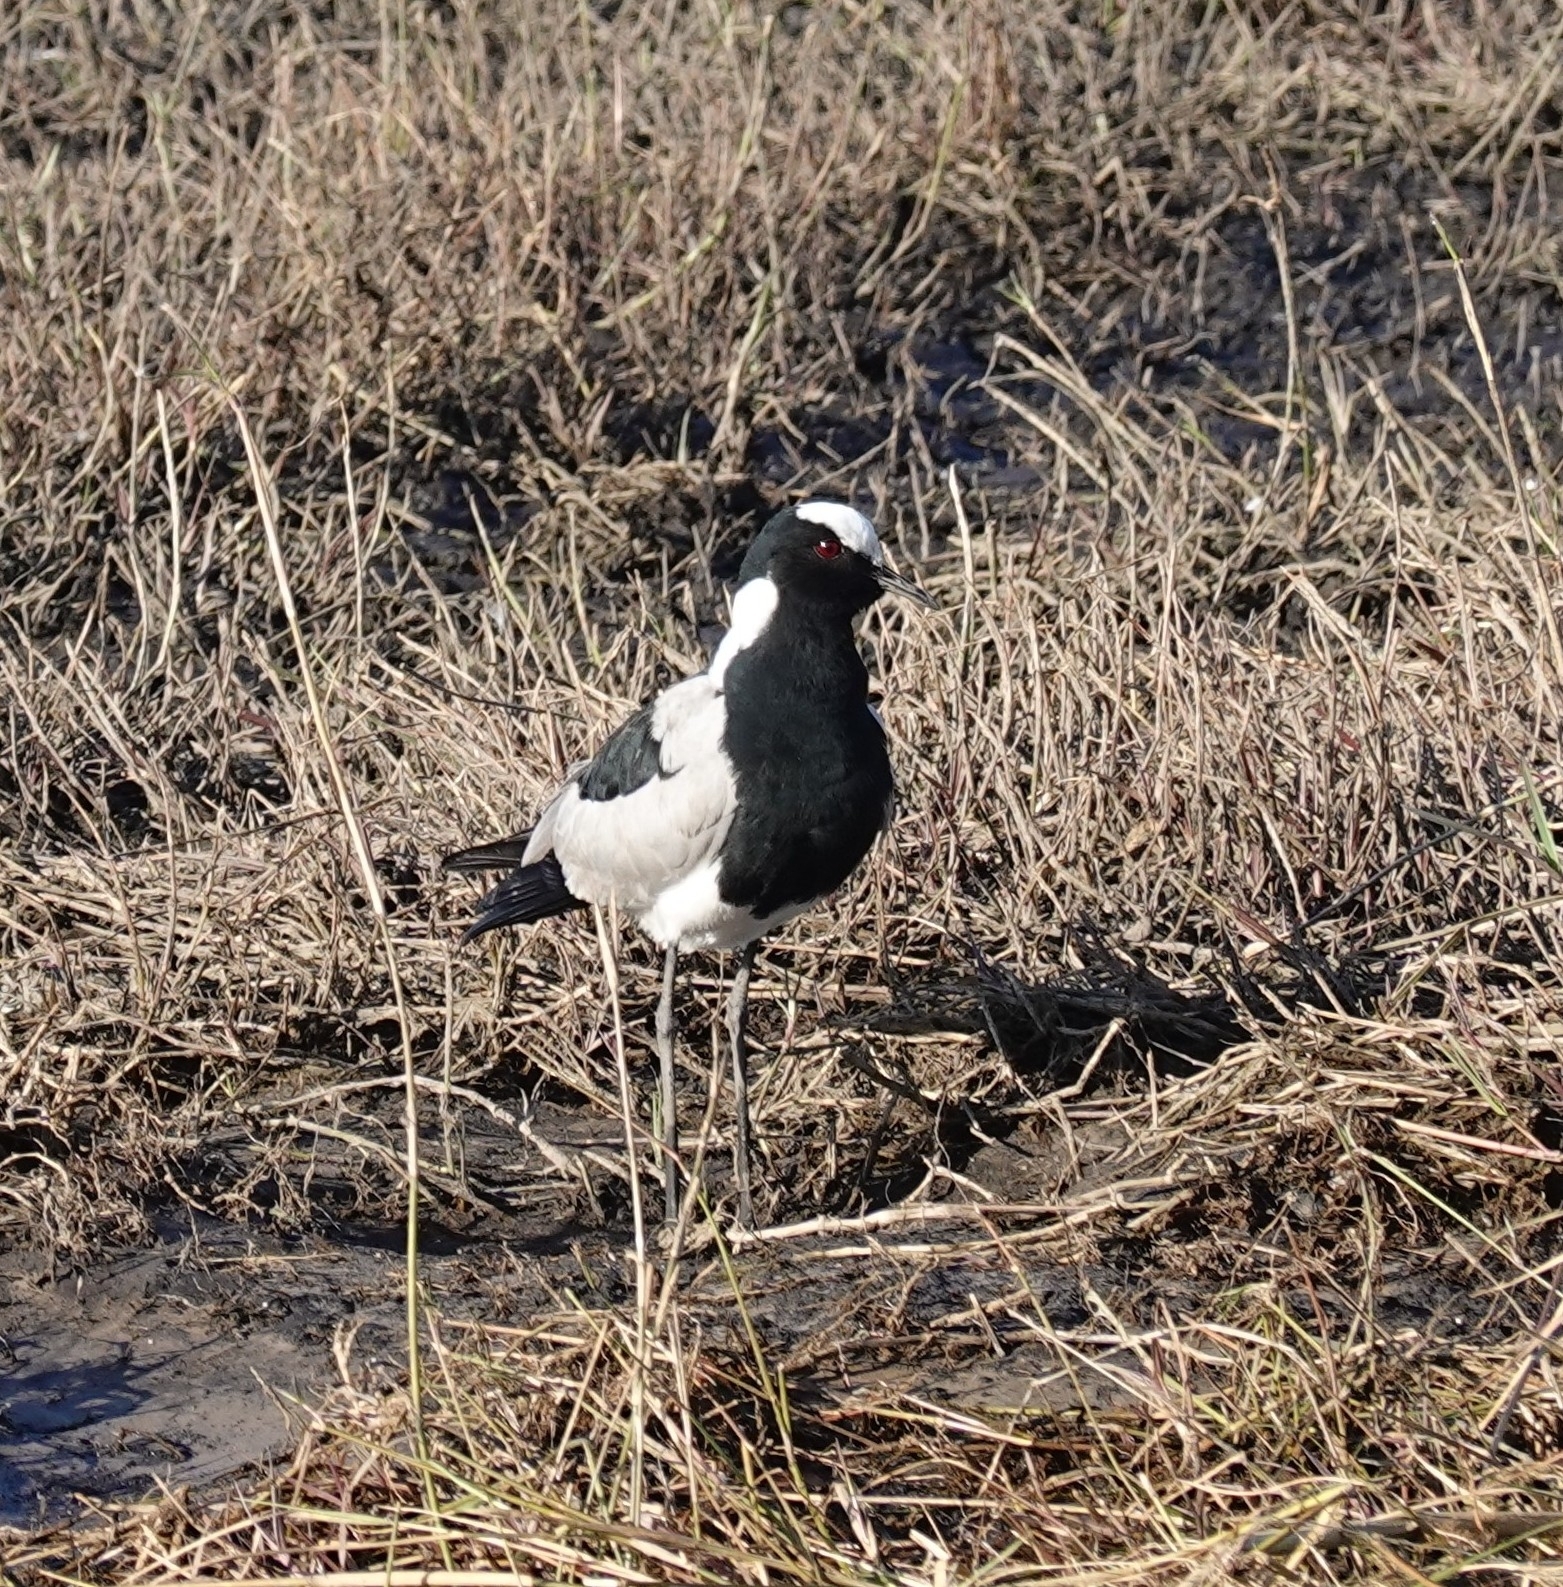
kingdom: Animalia
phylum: Chordata
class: Aves
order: Charadriiformes
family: Charadriidae
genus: Vanellus
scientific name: Vanellus armatus
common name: Blacksmith lapwing
